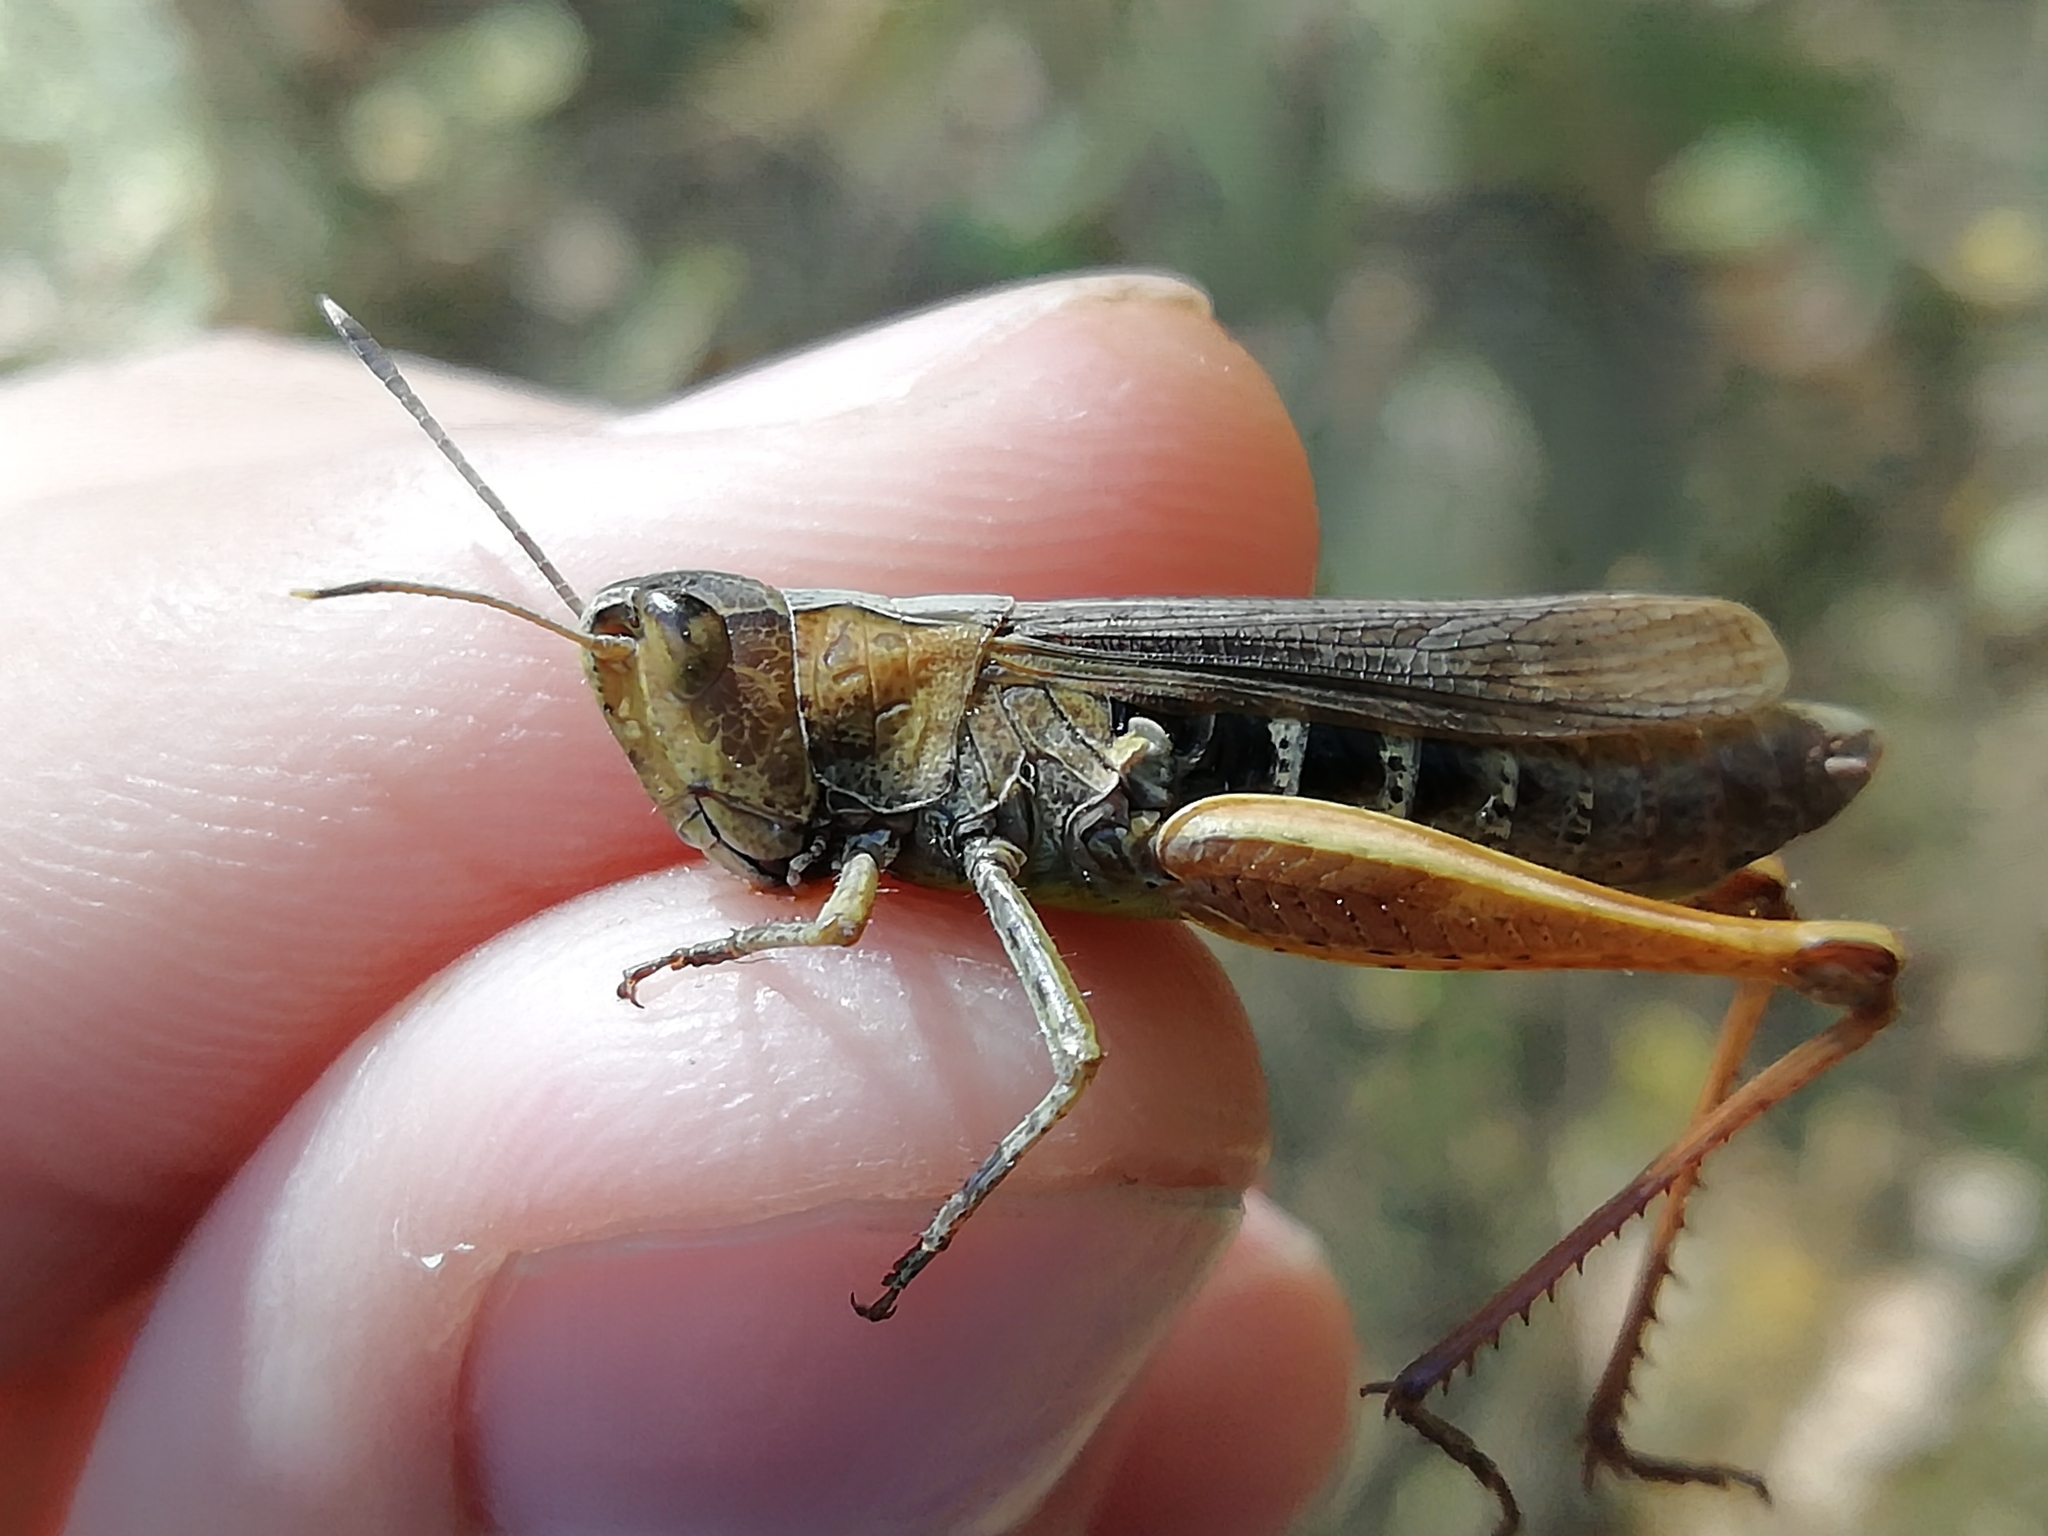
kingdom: Animalia
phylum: Arthropoda
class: Insecta
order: Orthoptera
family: Acrididae
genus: Gomphocerippus
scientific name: Gomphocerippus rufus
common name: Rufous grasshopper
